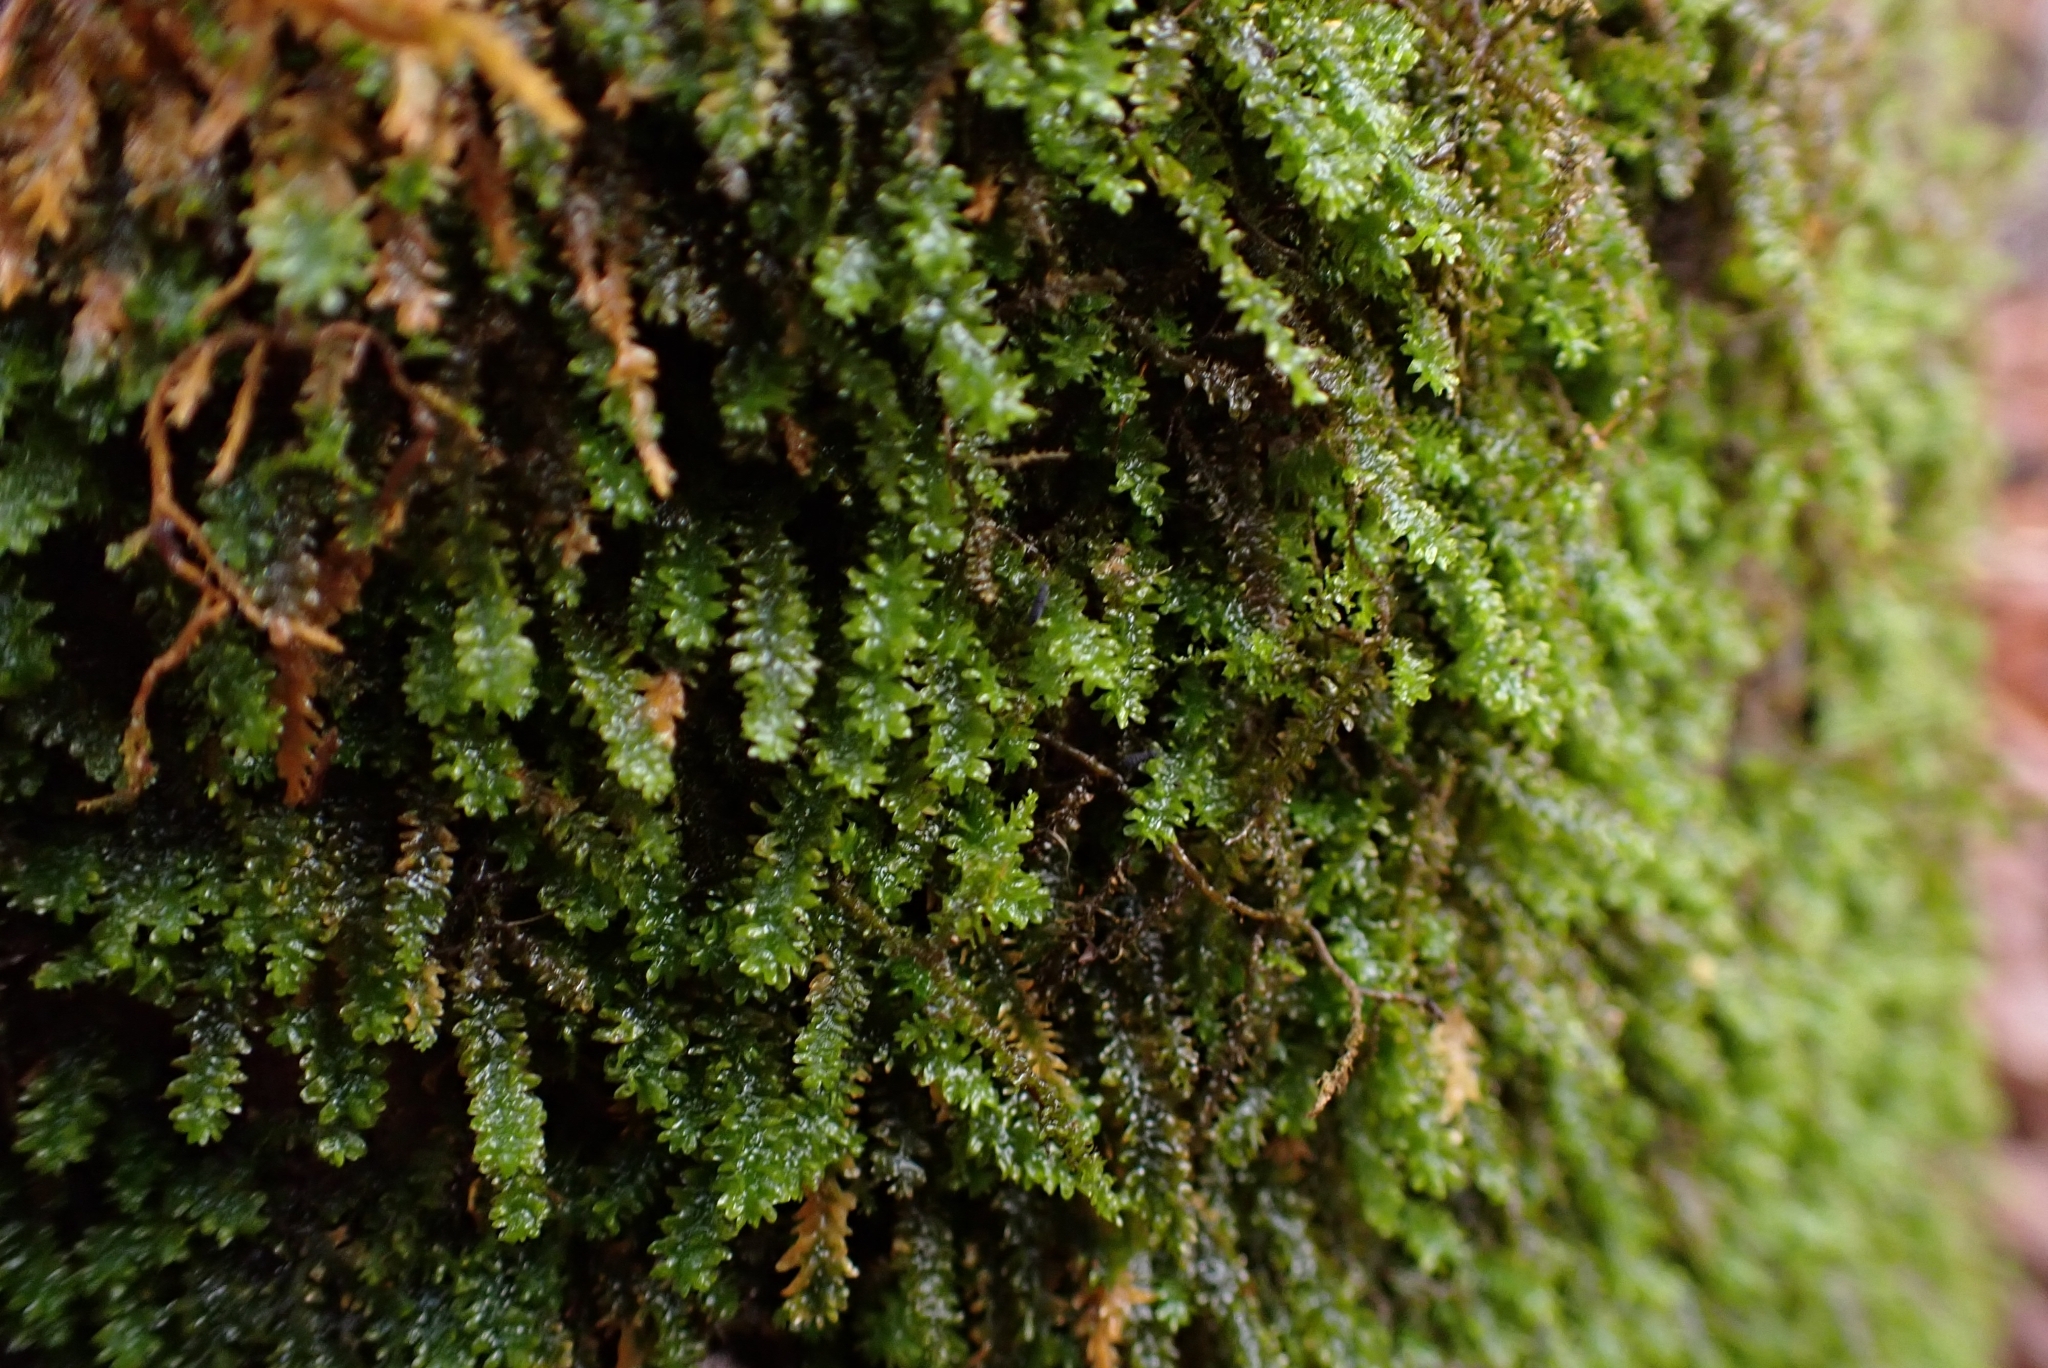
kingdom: Plantae
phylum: Bryophyta
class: Bryopsida
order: Hypnales
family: Anomodontaceae
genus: Anomodon
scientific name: Anomodon minor
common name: Blunt-leaved anomodon
